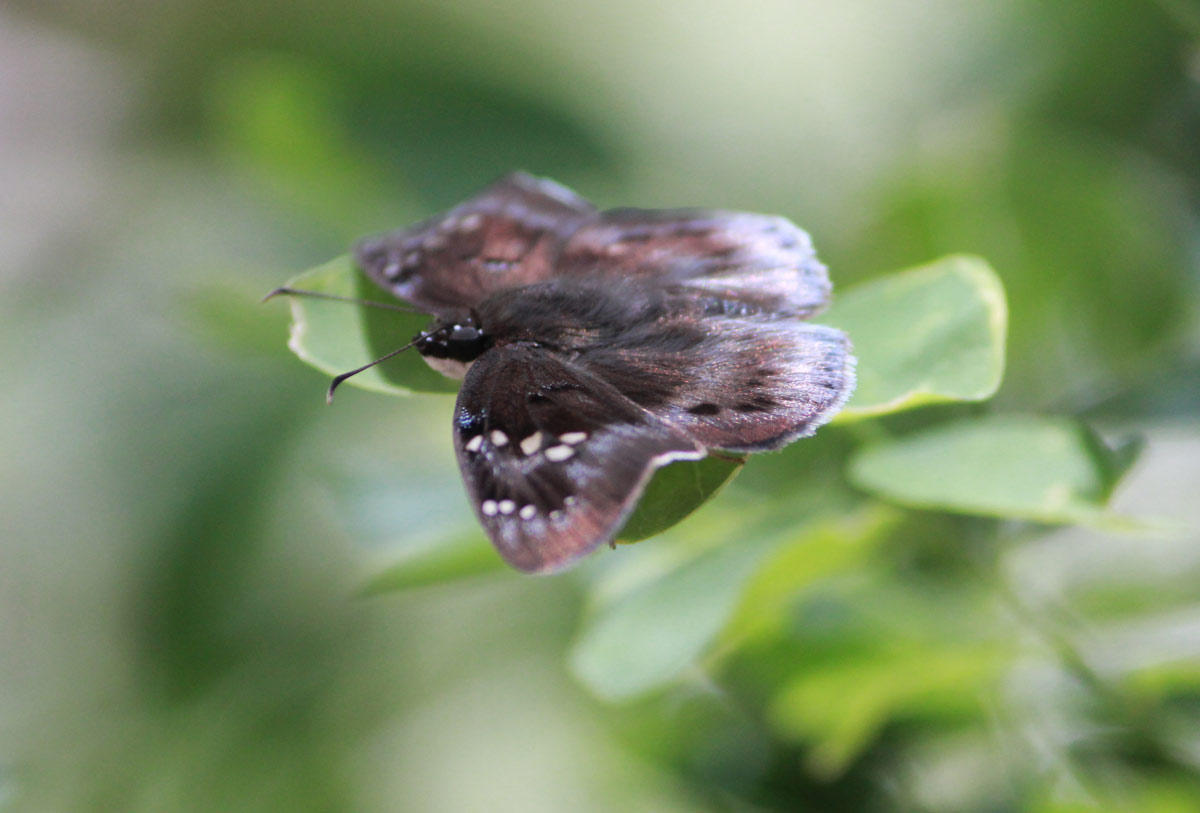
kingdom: Animalia
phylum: Arthropoda
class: Insecta
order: Lepidoptera
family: Hesperiidae
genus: Tagiades
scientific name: Tagiades flesus
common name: Clouded flat
